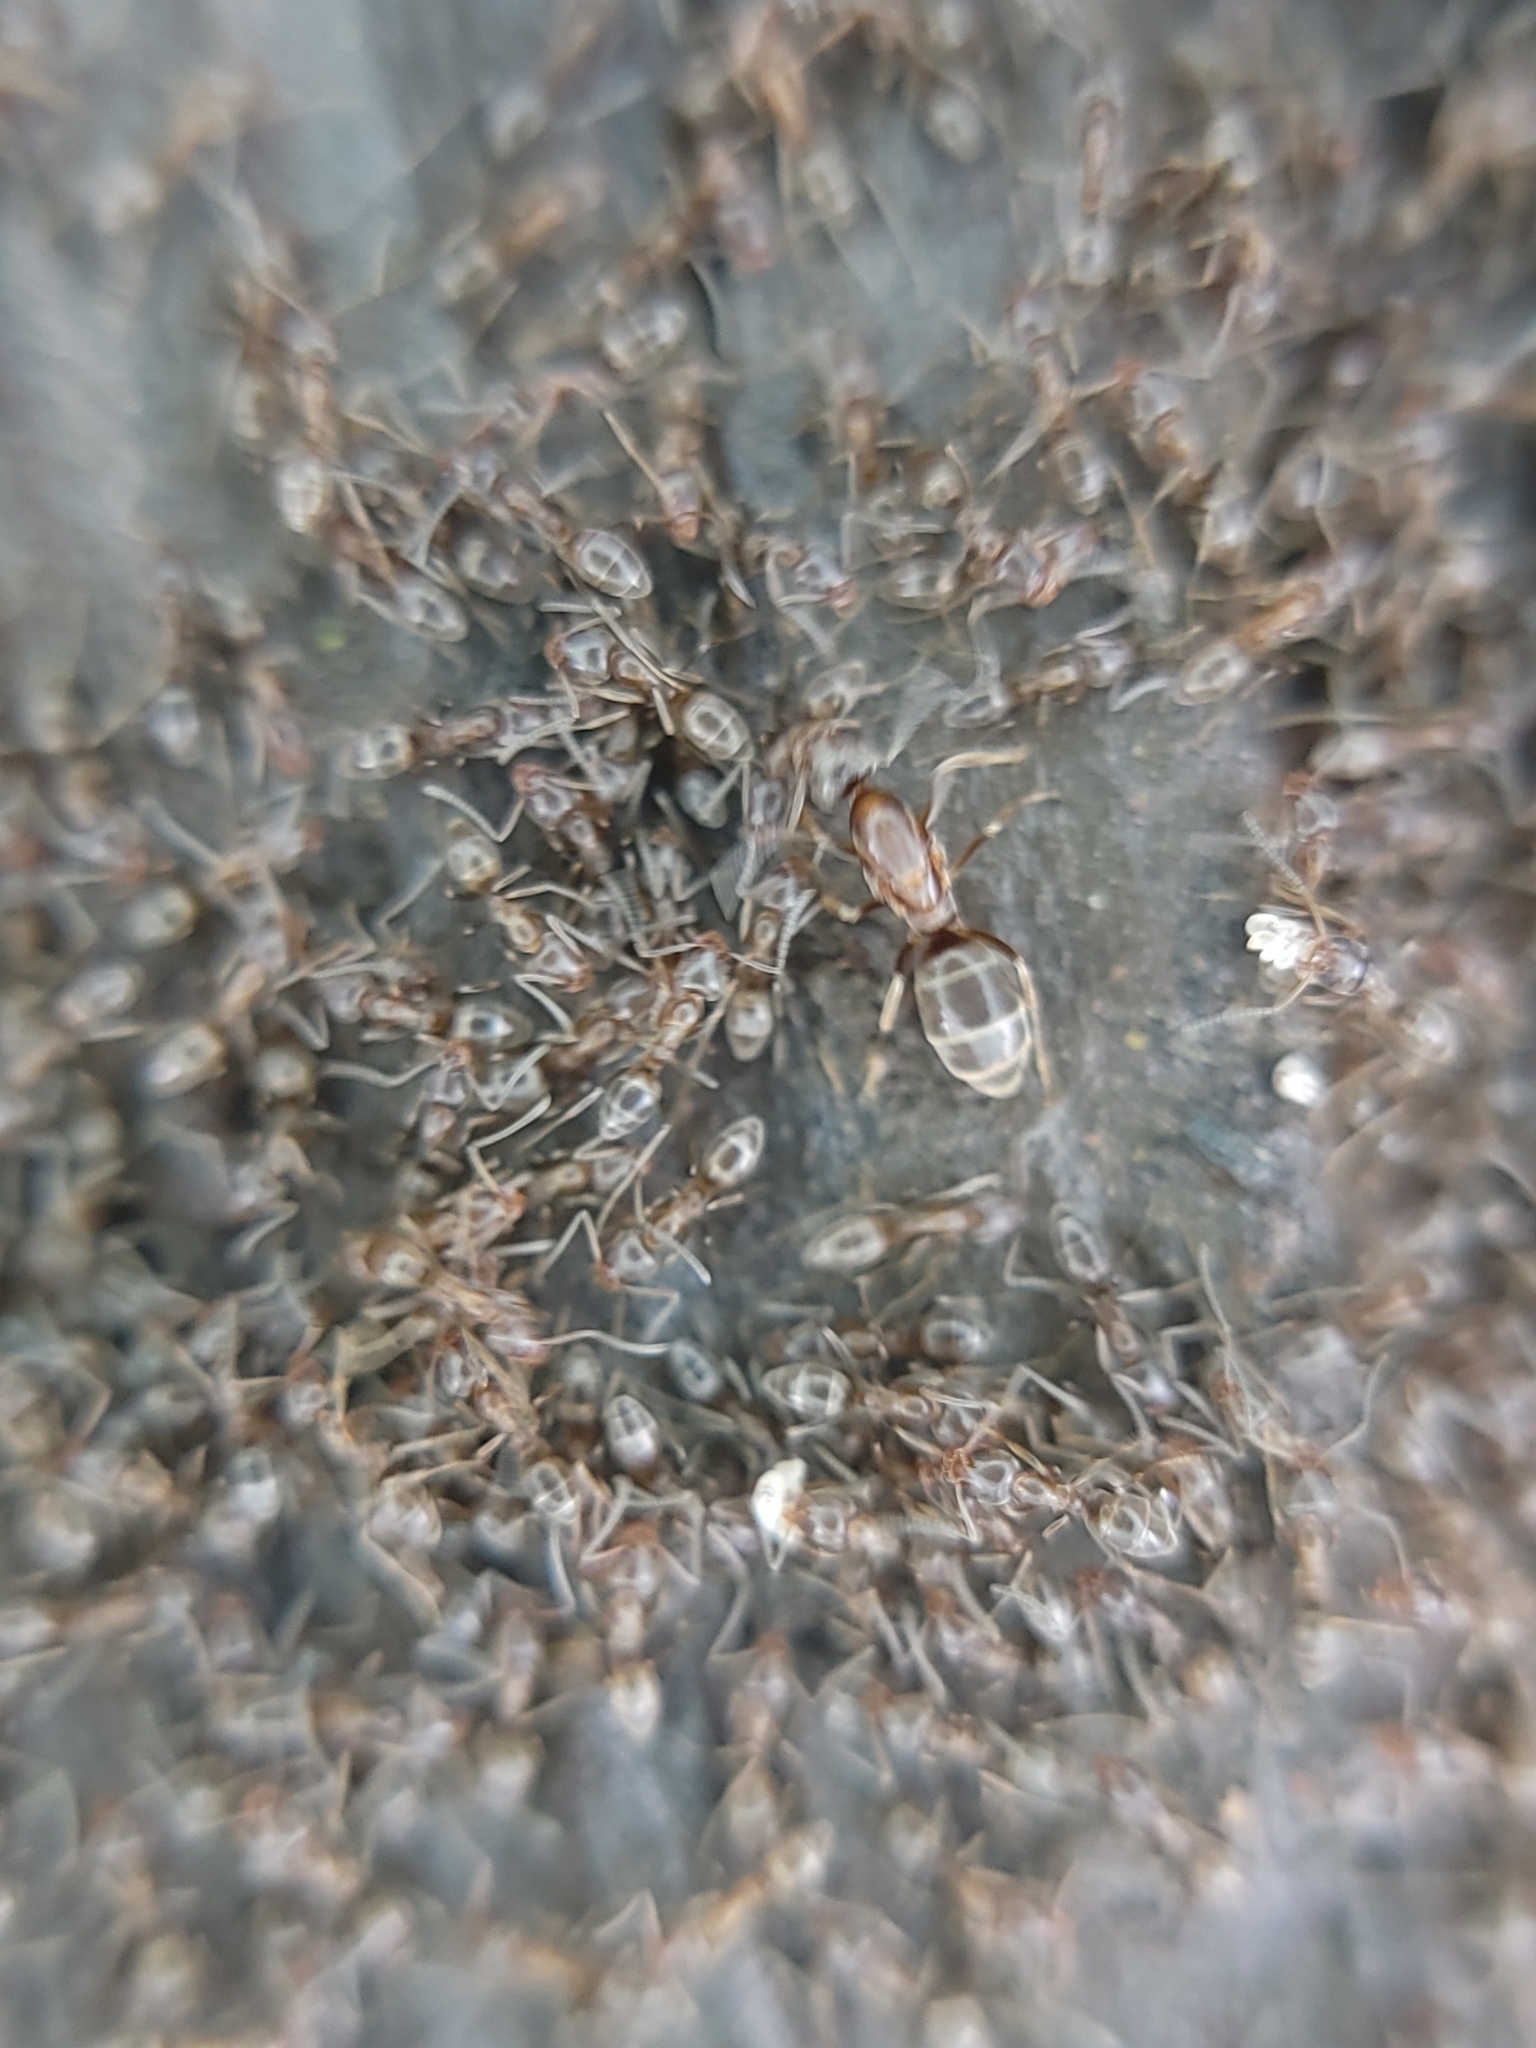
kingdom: Animalia
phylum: Arthropoda
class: Insecta
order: Hymenoptera
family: Formicidae
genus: Linepithema
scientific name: Linepithema humile
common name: Argentine ant
